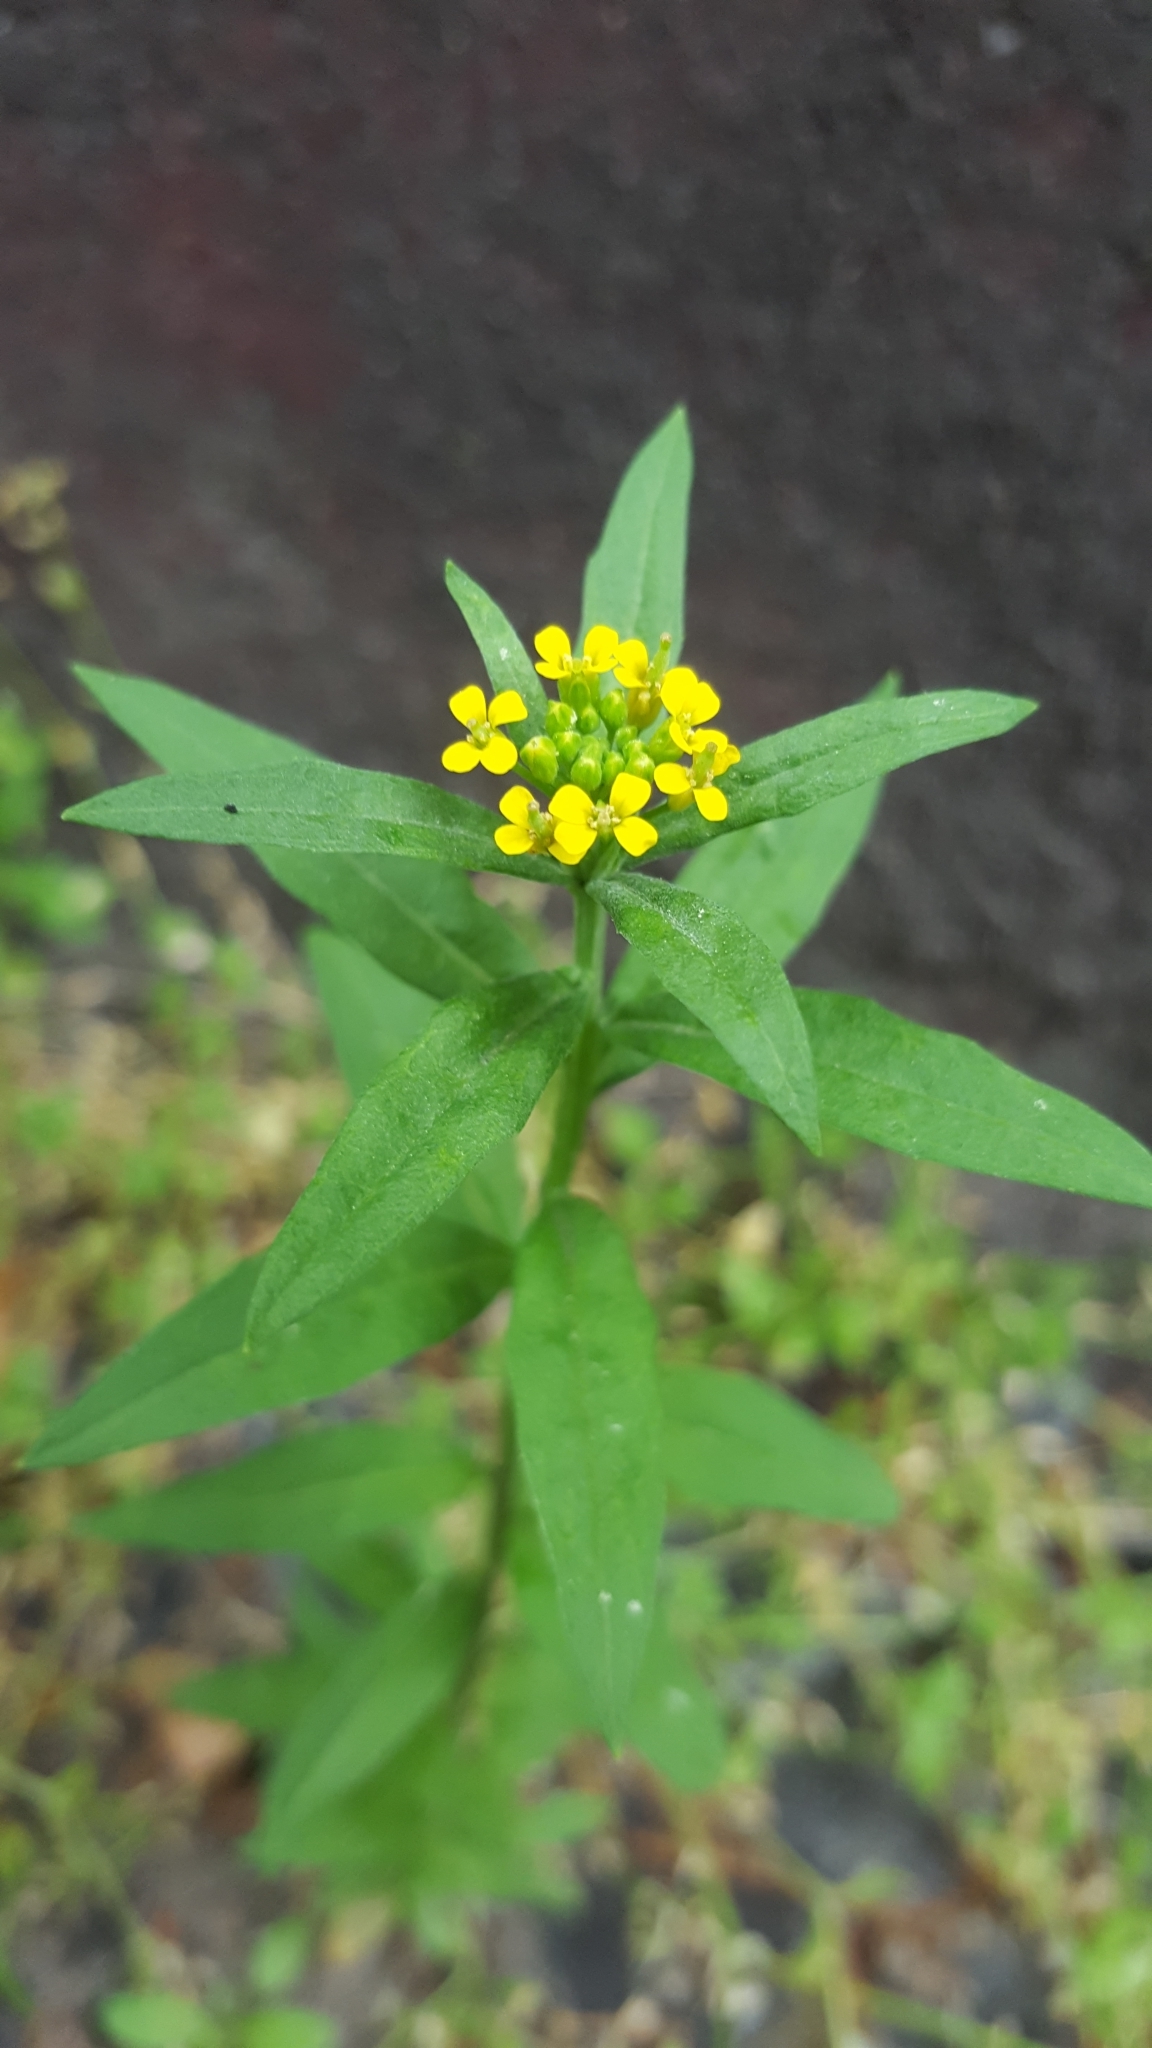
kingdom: Plantae
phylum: Tracheophyta
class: Magnoliopsida
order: Brassicales
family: Brassicaceae
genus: Erysimum
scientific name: Erysimum cheiranthoides
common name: Treacle mustard
